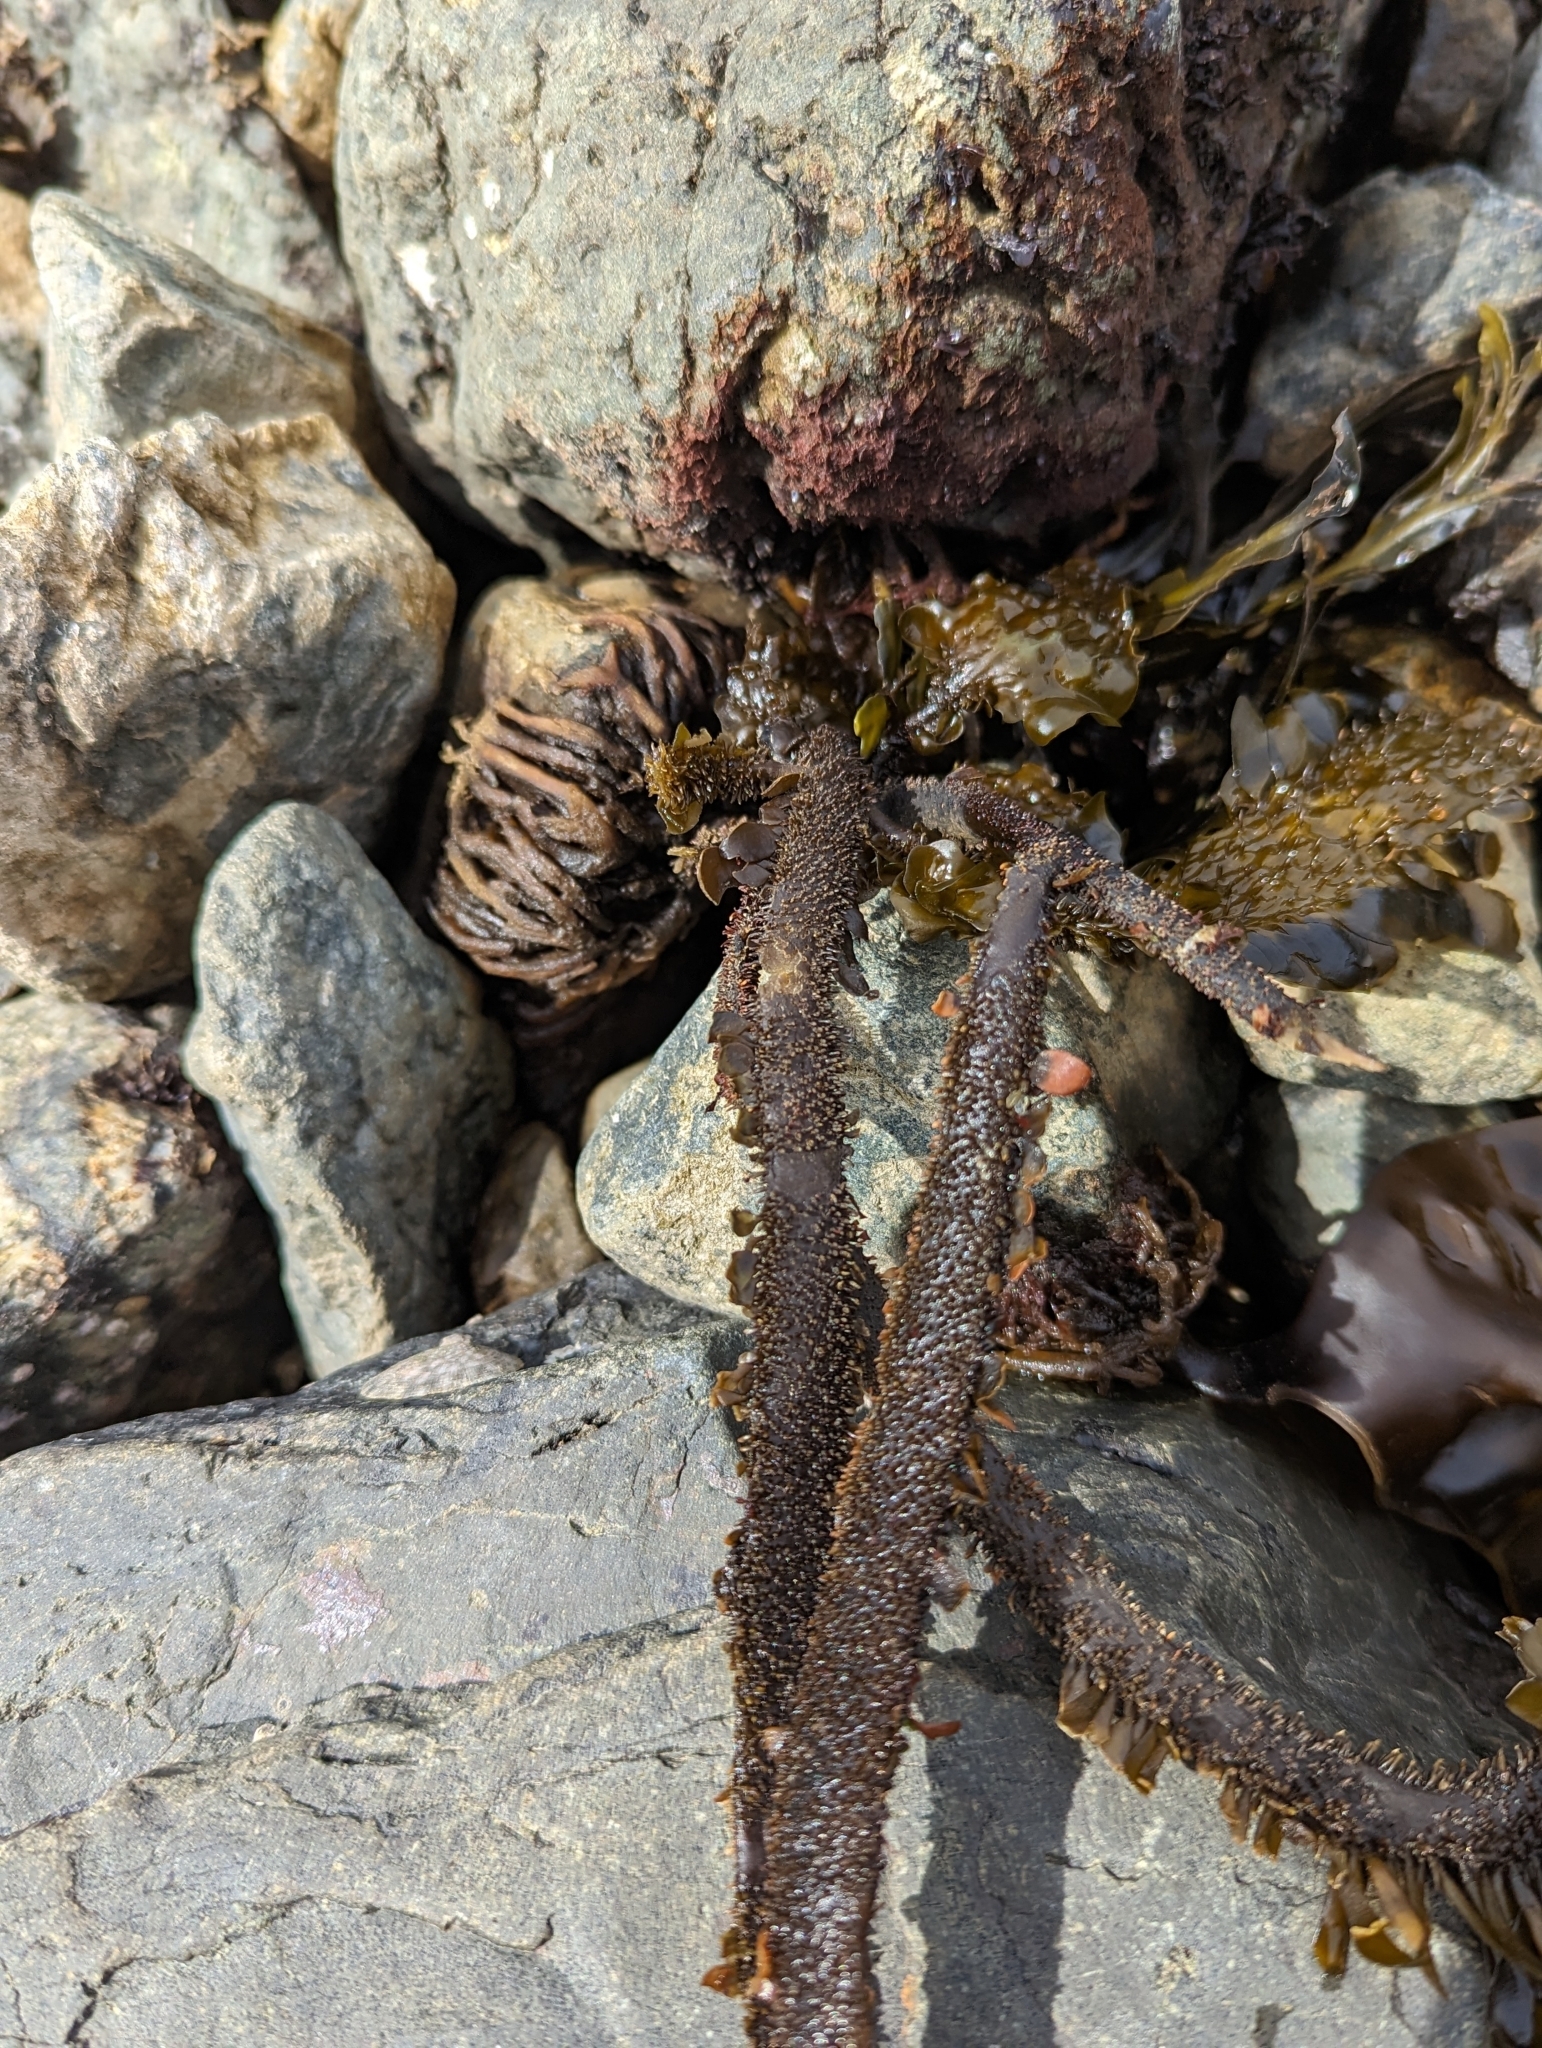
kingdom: Chromista
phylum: Ochrophyta
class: Phaeophyceae
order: Laminariales
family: Lessoniaceae
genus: Egregia
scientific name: Egregia menziesii
